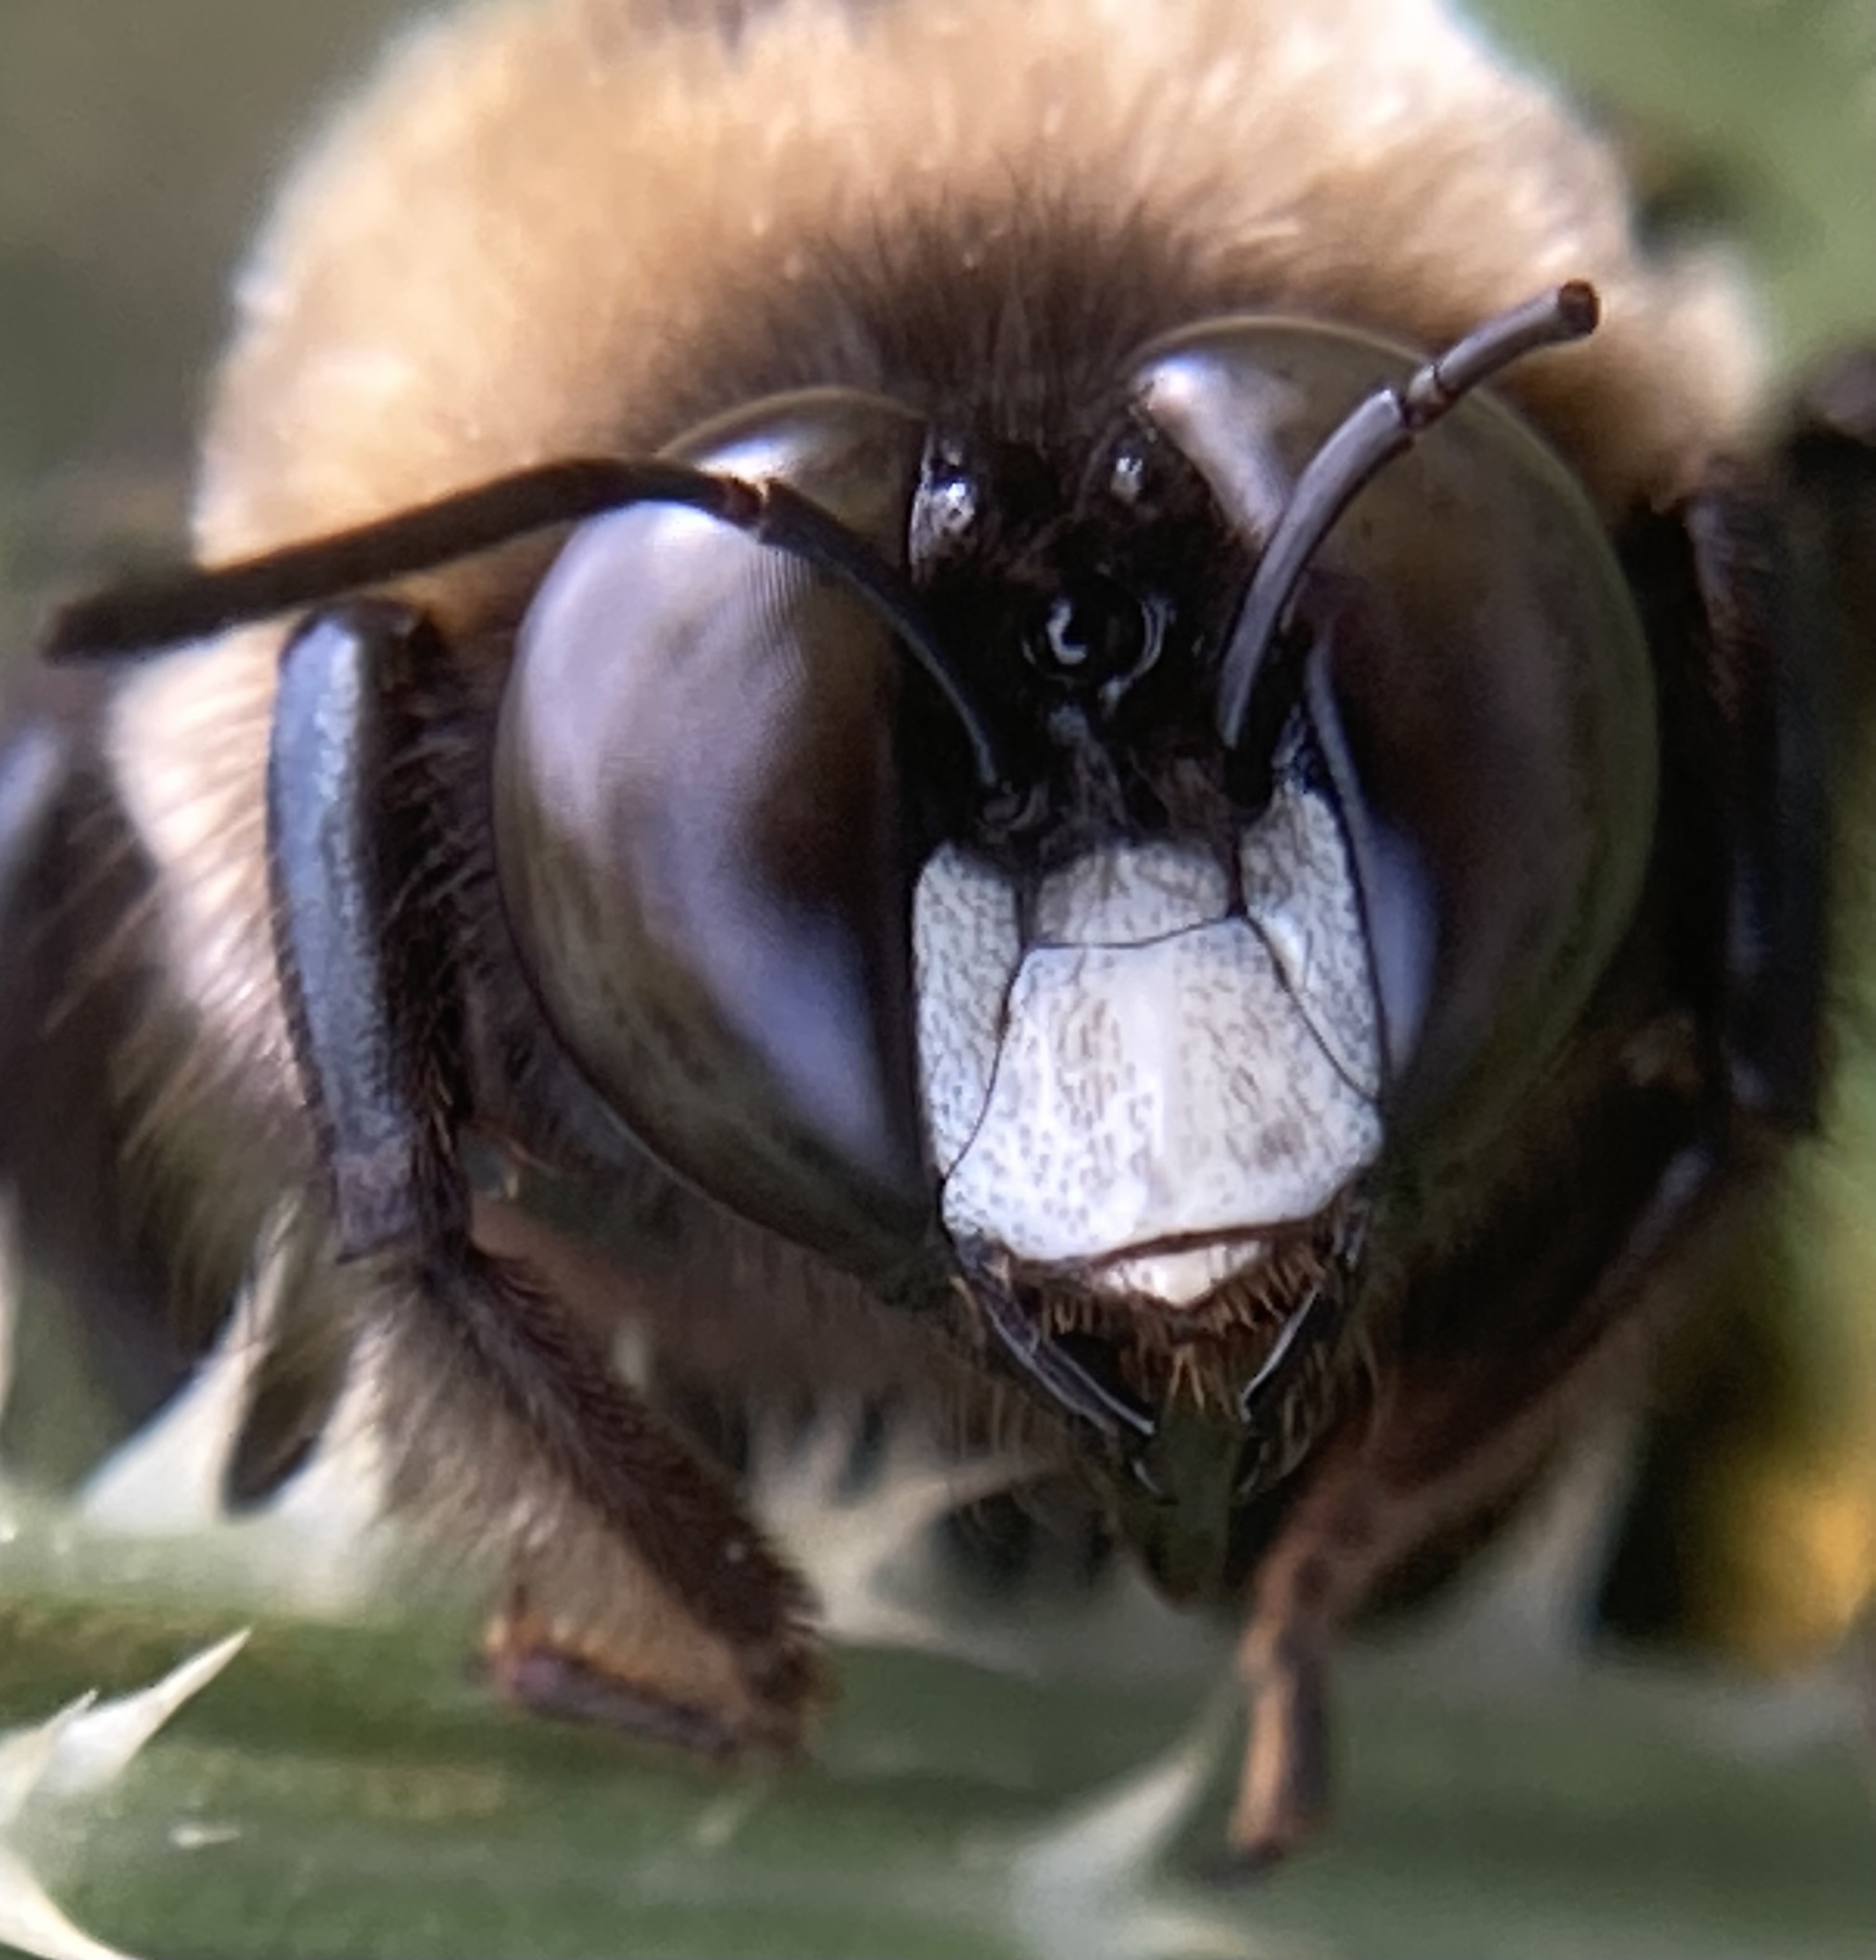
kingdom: Animalia
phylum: Arthropoda
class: Insecta
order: Hymenoptera
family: Apidae
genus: Xylocopa
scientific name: Xylocopa virginica
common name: Carpenter bee
